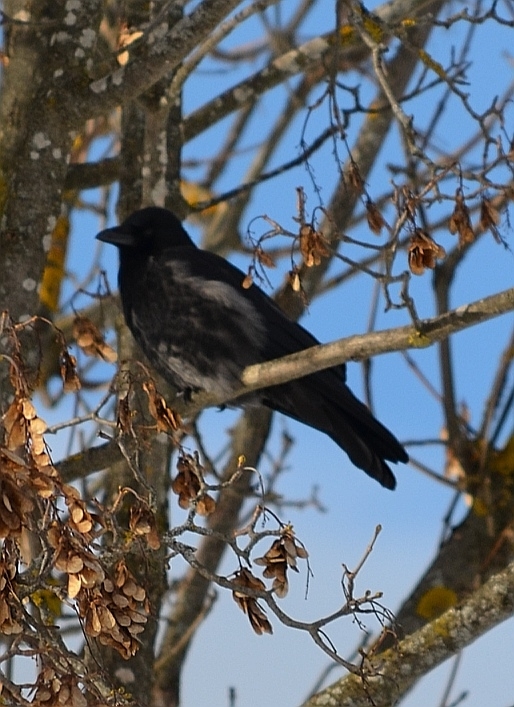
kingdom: Animalia
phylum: Chordata
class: Aves
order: Passeriformes
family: Corvidae
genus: Corvus
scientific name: Corvus
